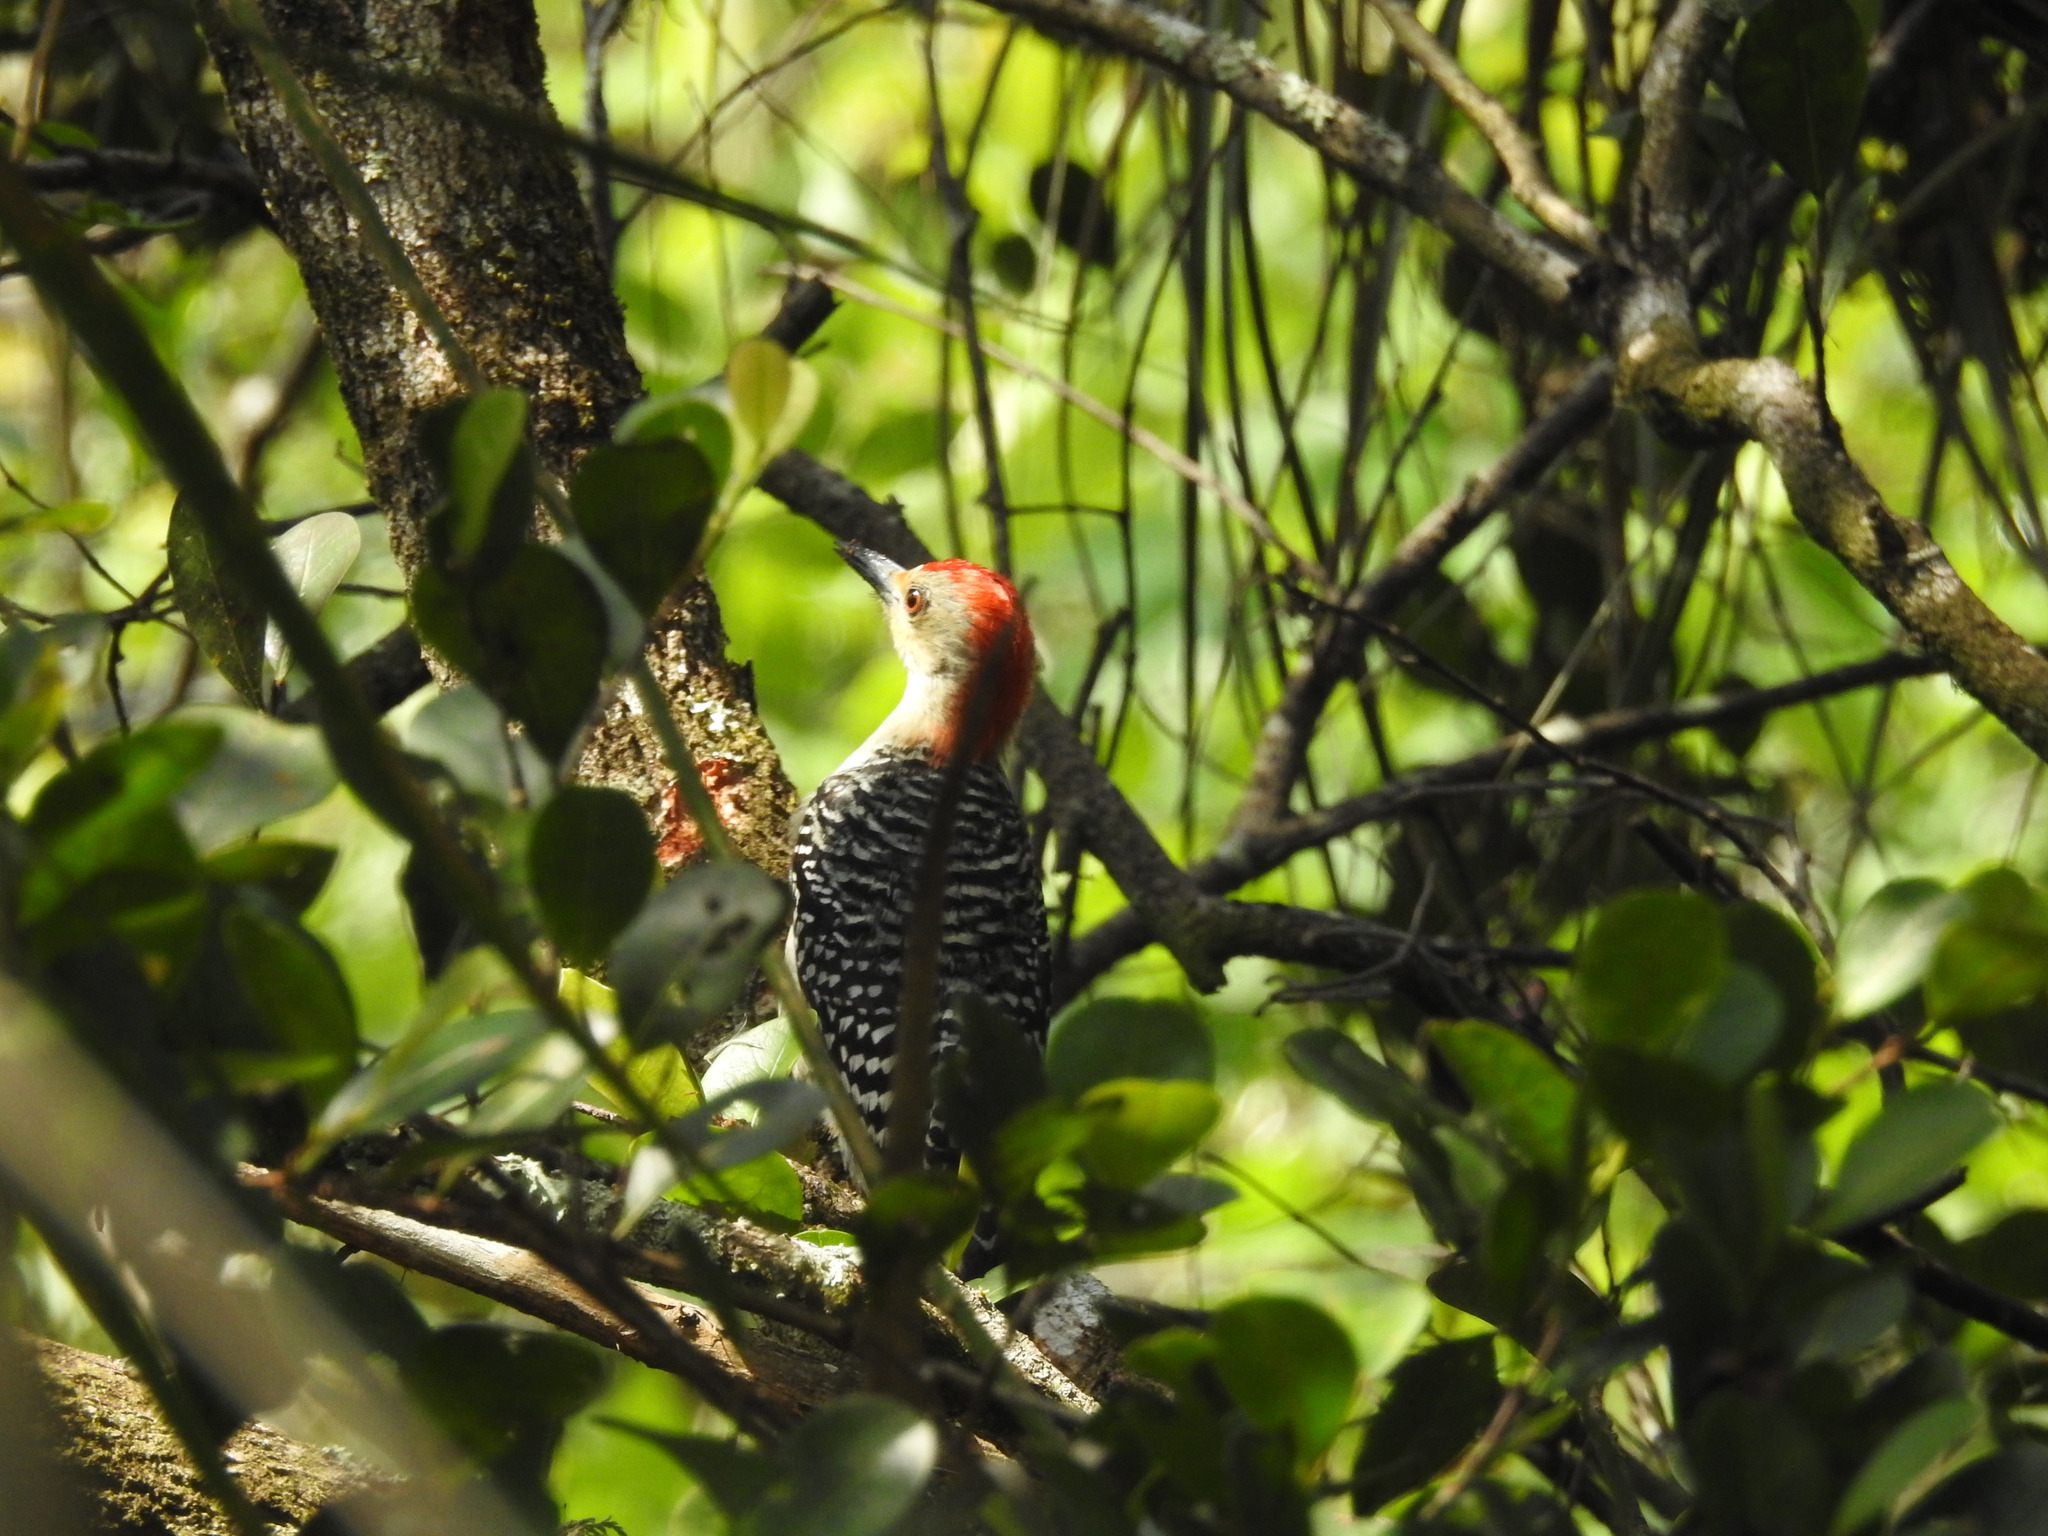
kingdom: Animalia
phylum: Chordata
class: Aves
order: Piciformes
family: Picidae
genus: Melanerpes
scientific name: Melanerpes carolinus
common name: Red-bellied woodpecker
